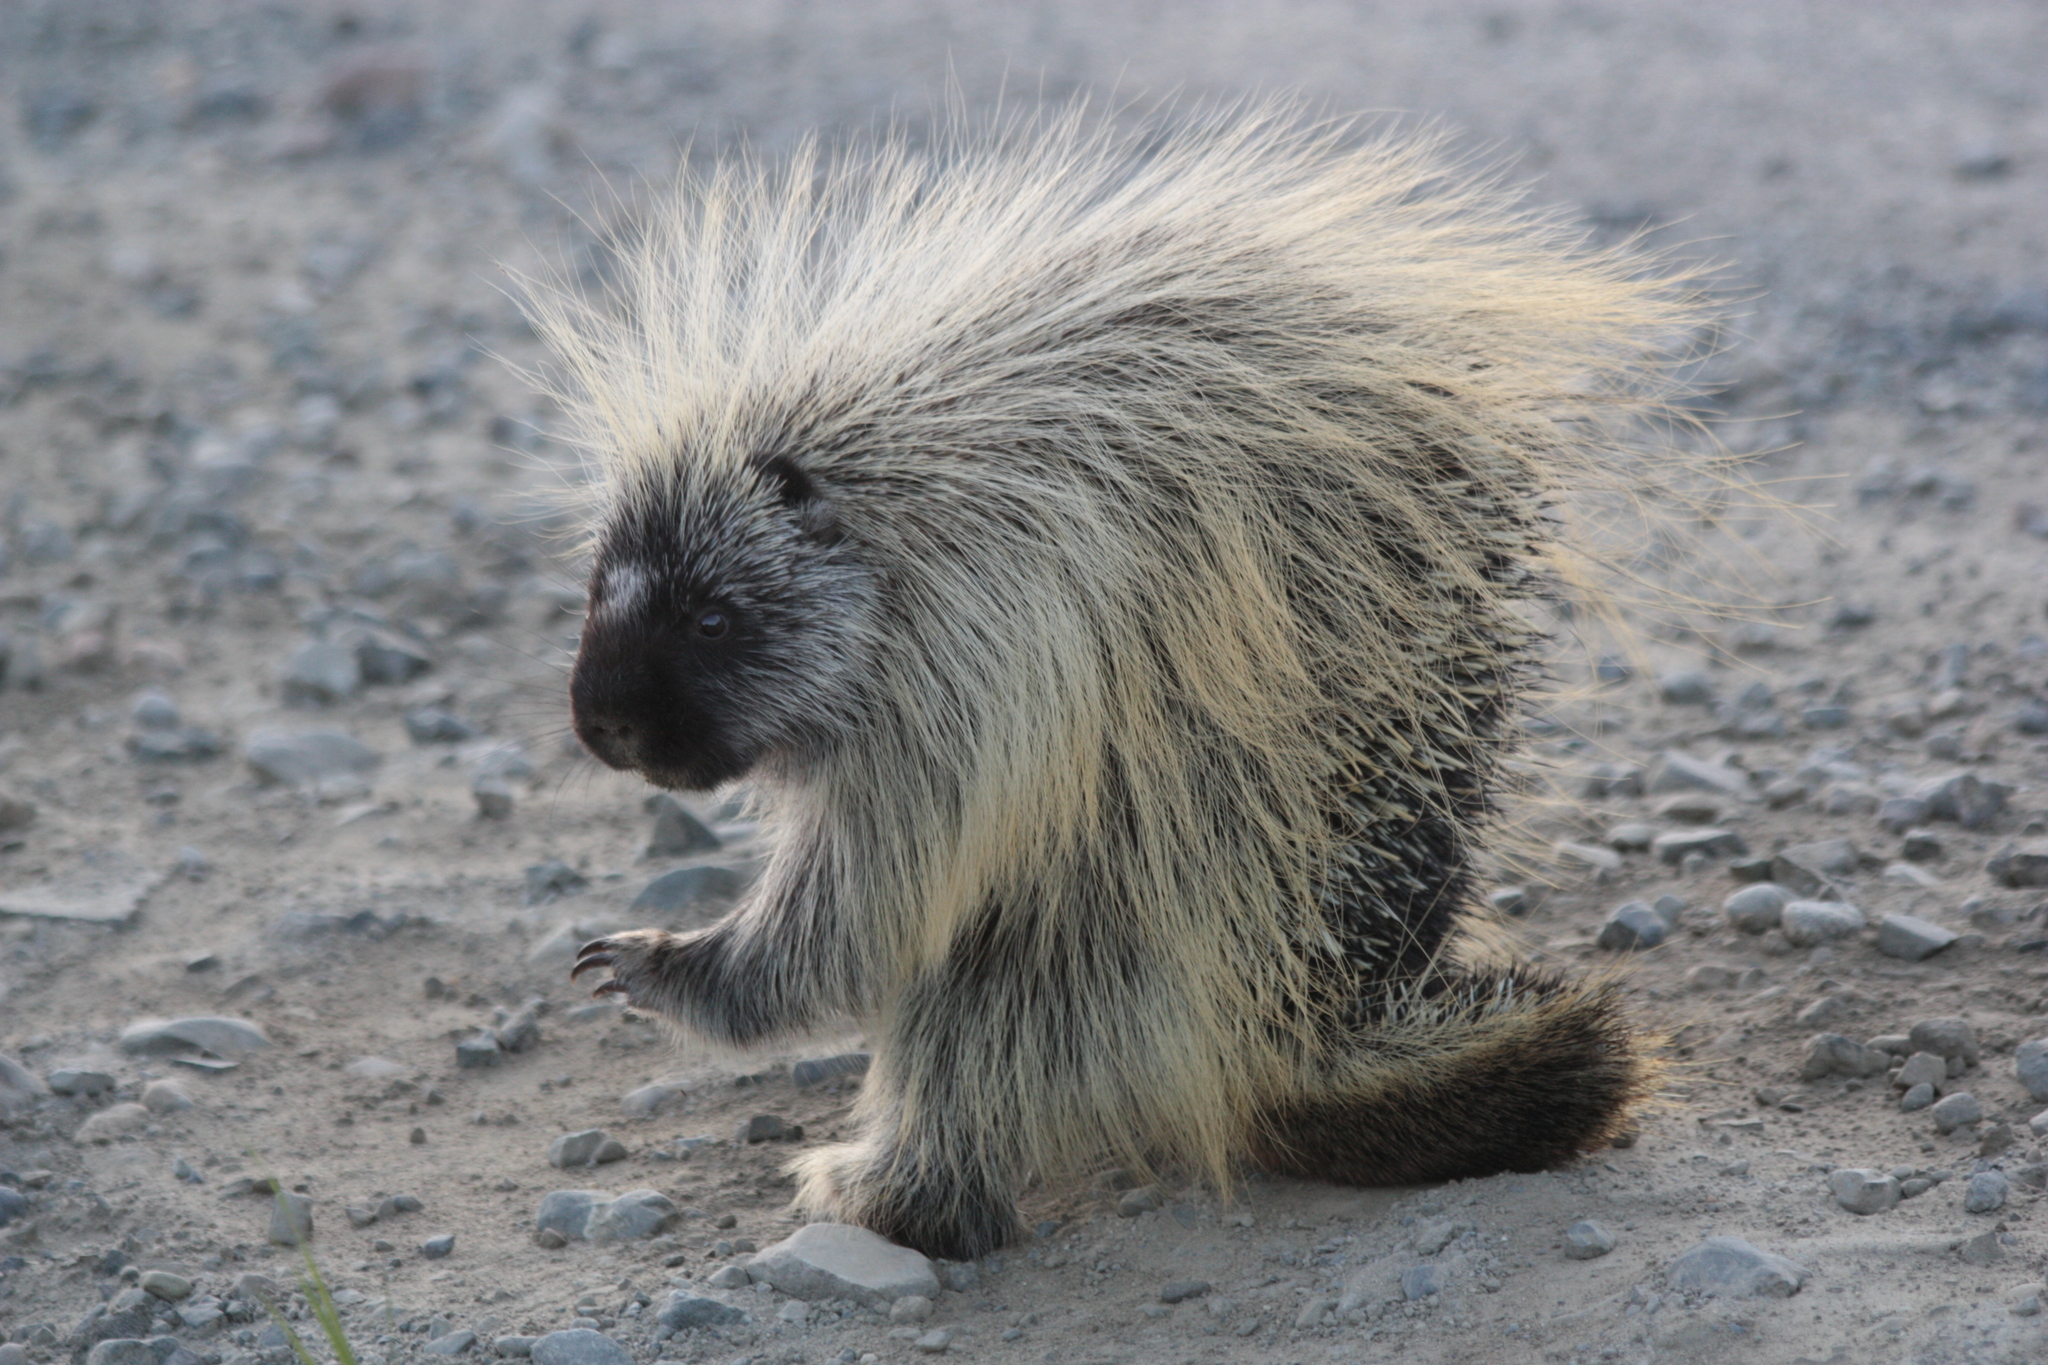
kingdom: Animalia
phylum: Chordata
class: Mammalia
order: Rodentia
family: Erethizontidae
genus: Erethizon
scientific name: Erethizon dorsatus
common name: North american porcupine
